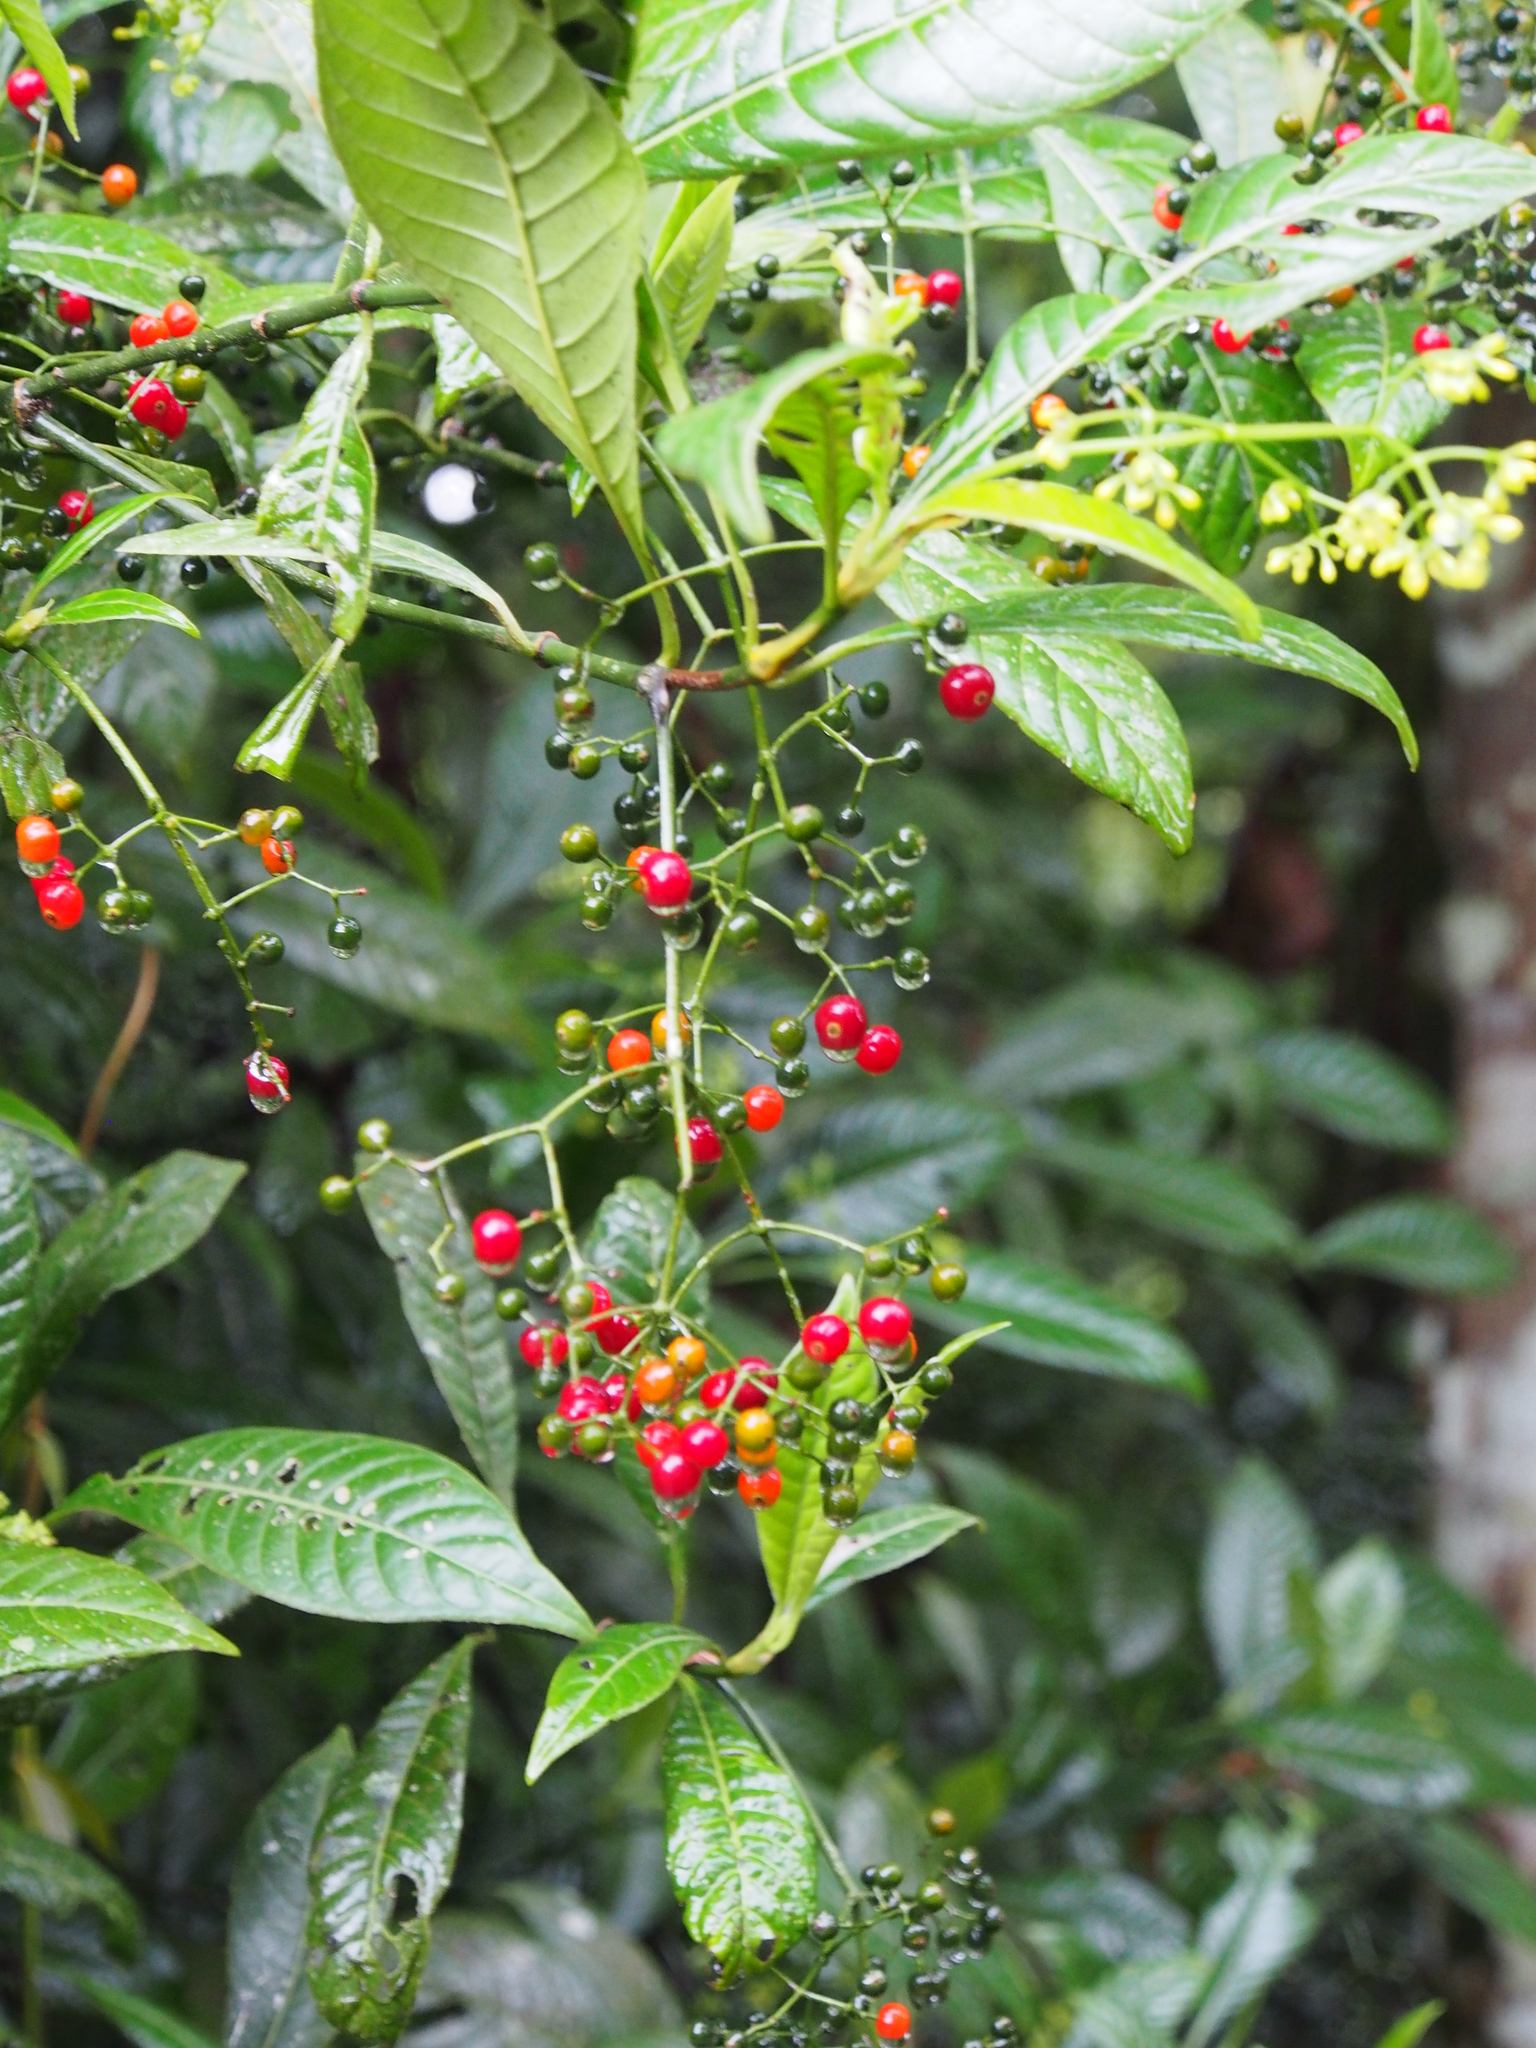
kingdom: Plantae
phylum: Tracheophyta
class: Magnoliopsida
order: Gentianales
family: Rubiaceae
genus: Psychotria
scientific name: Psychotria marginata
